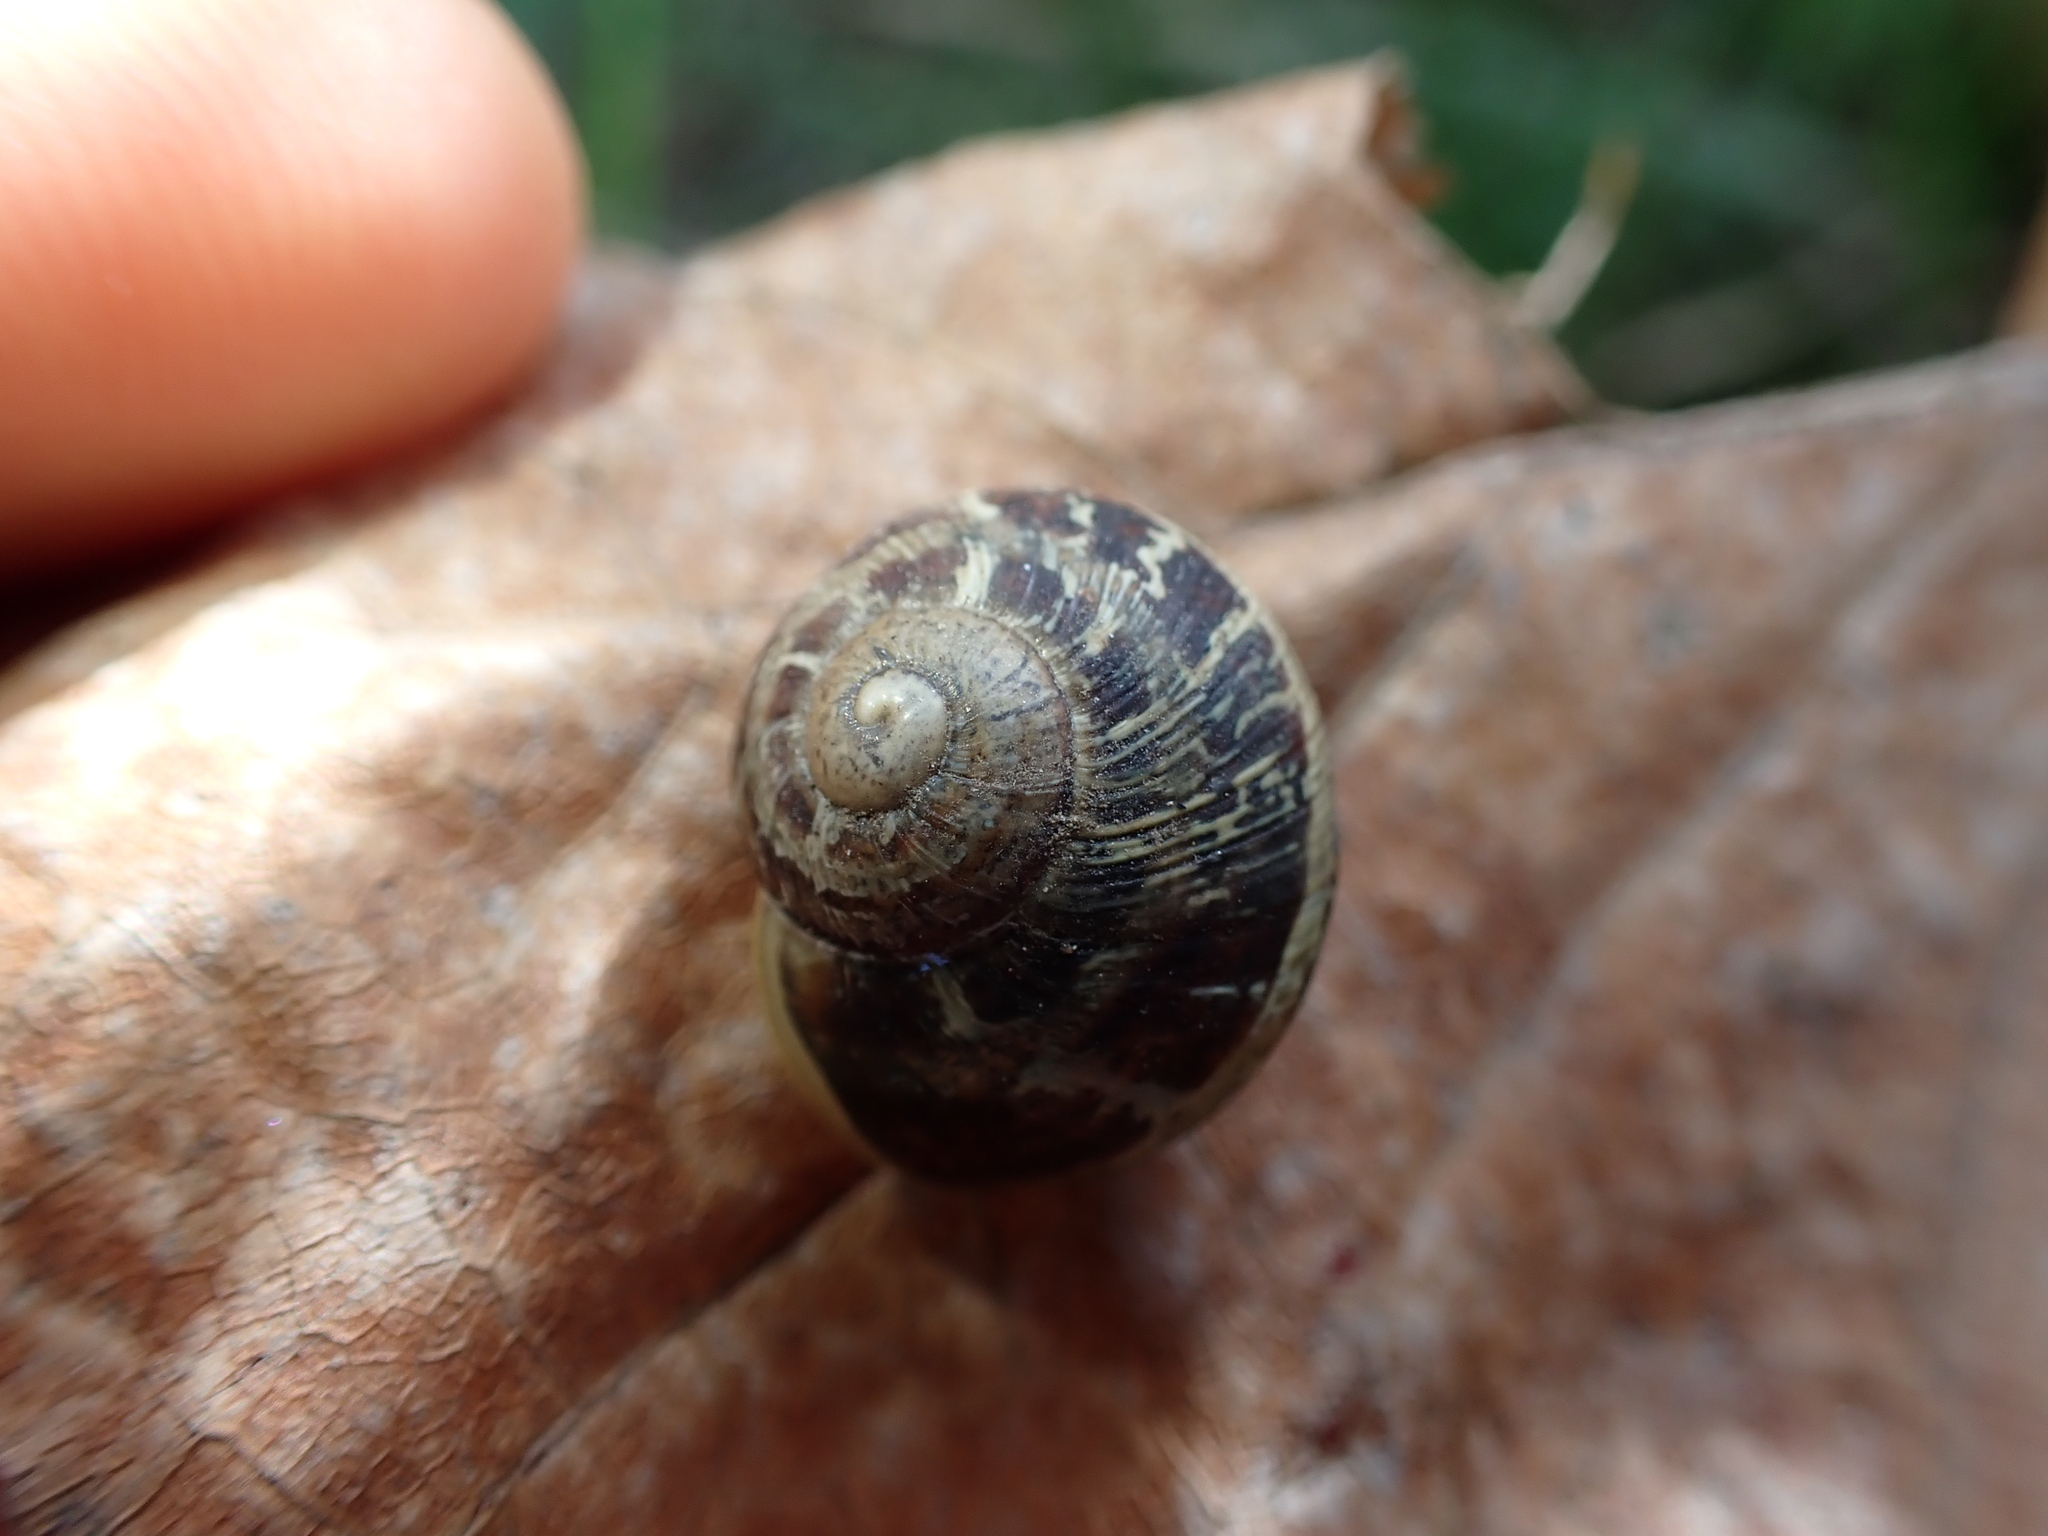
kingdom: Animalia
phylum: Mollusca
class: Gastropoda
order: Stylommatophora
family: Helicidae
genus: Cornu
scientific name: Cornu aspersum
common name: Brown garden snail
